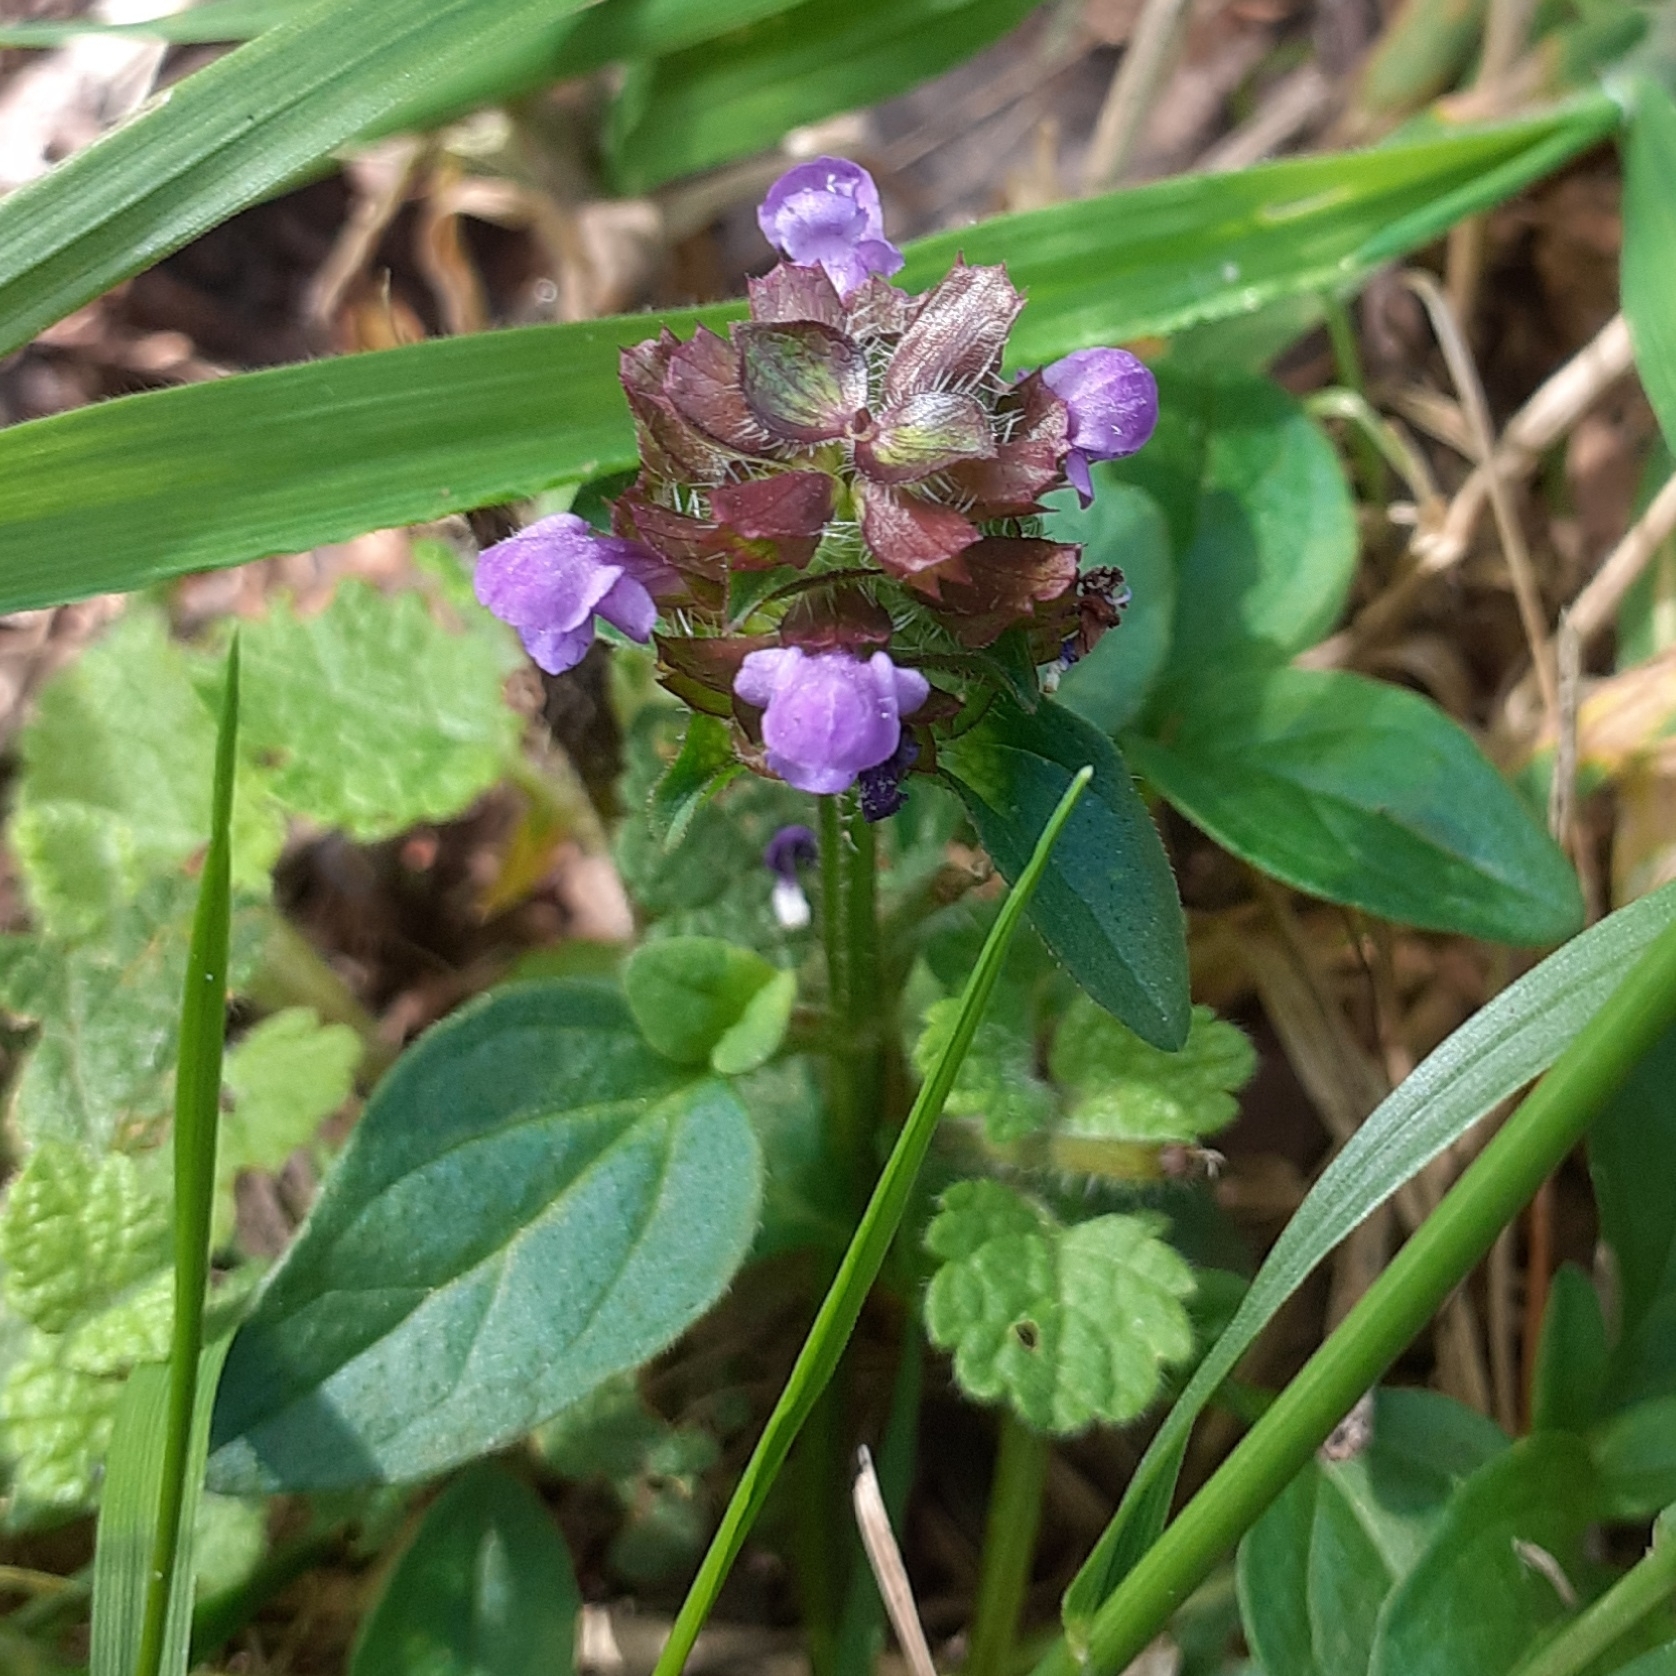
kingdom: Plantae
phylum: Tracheophyta
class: Magnoliopsida
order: Lamiales
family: Lamiaceae
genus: Prunella
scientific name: Prunella vulgaris
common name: Heal-all
